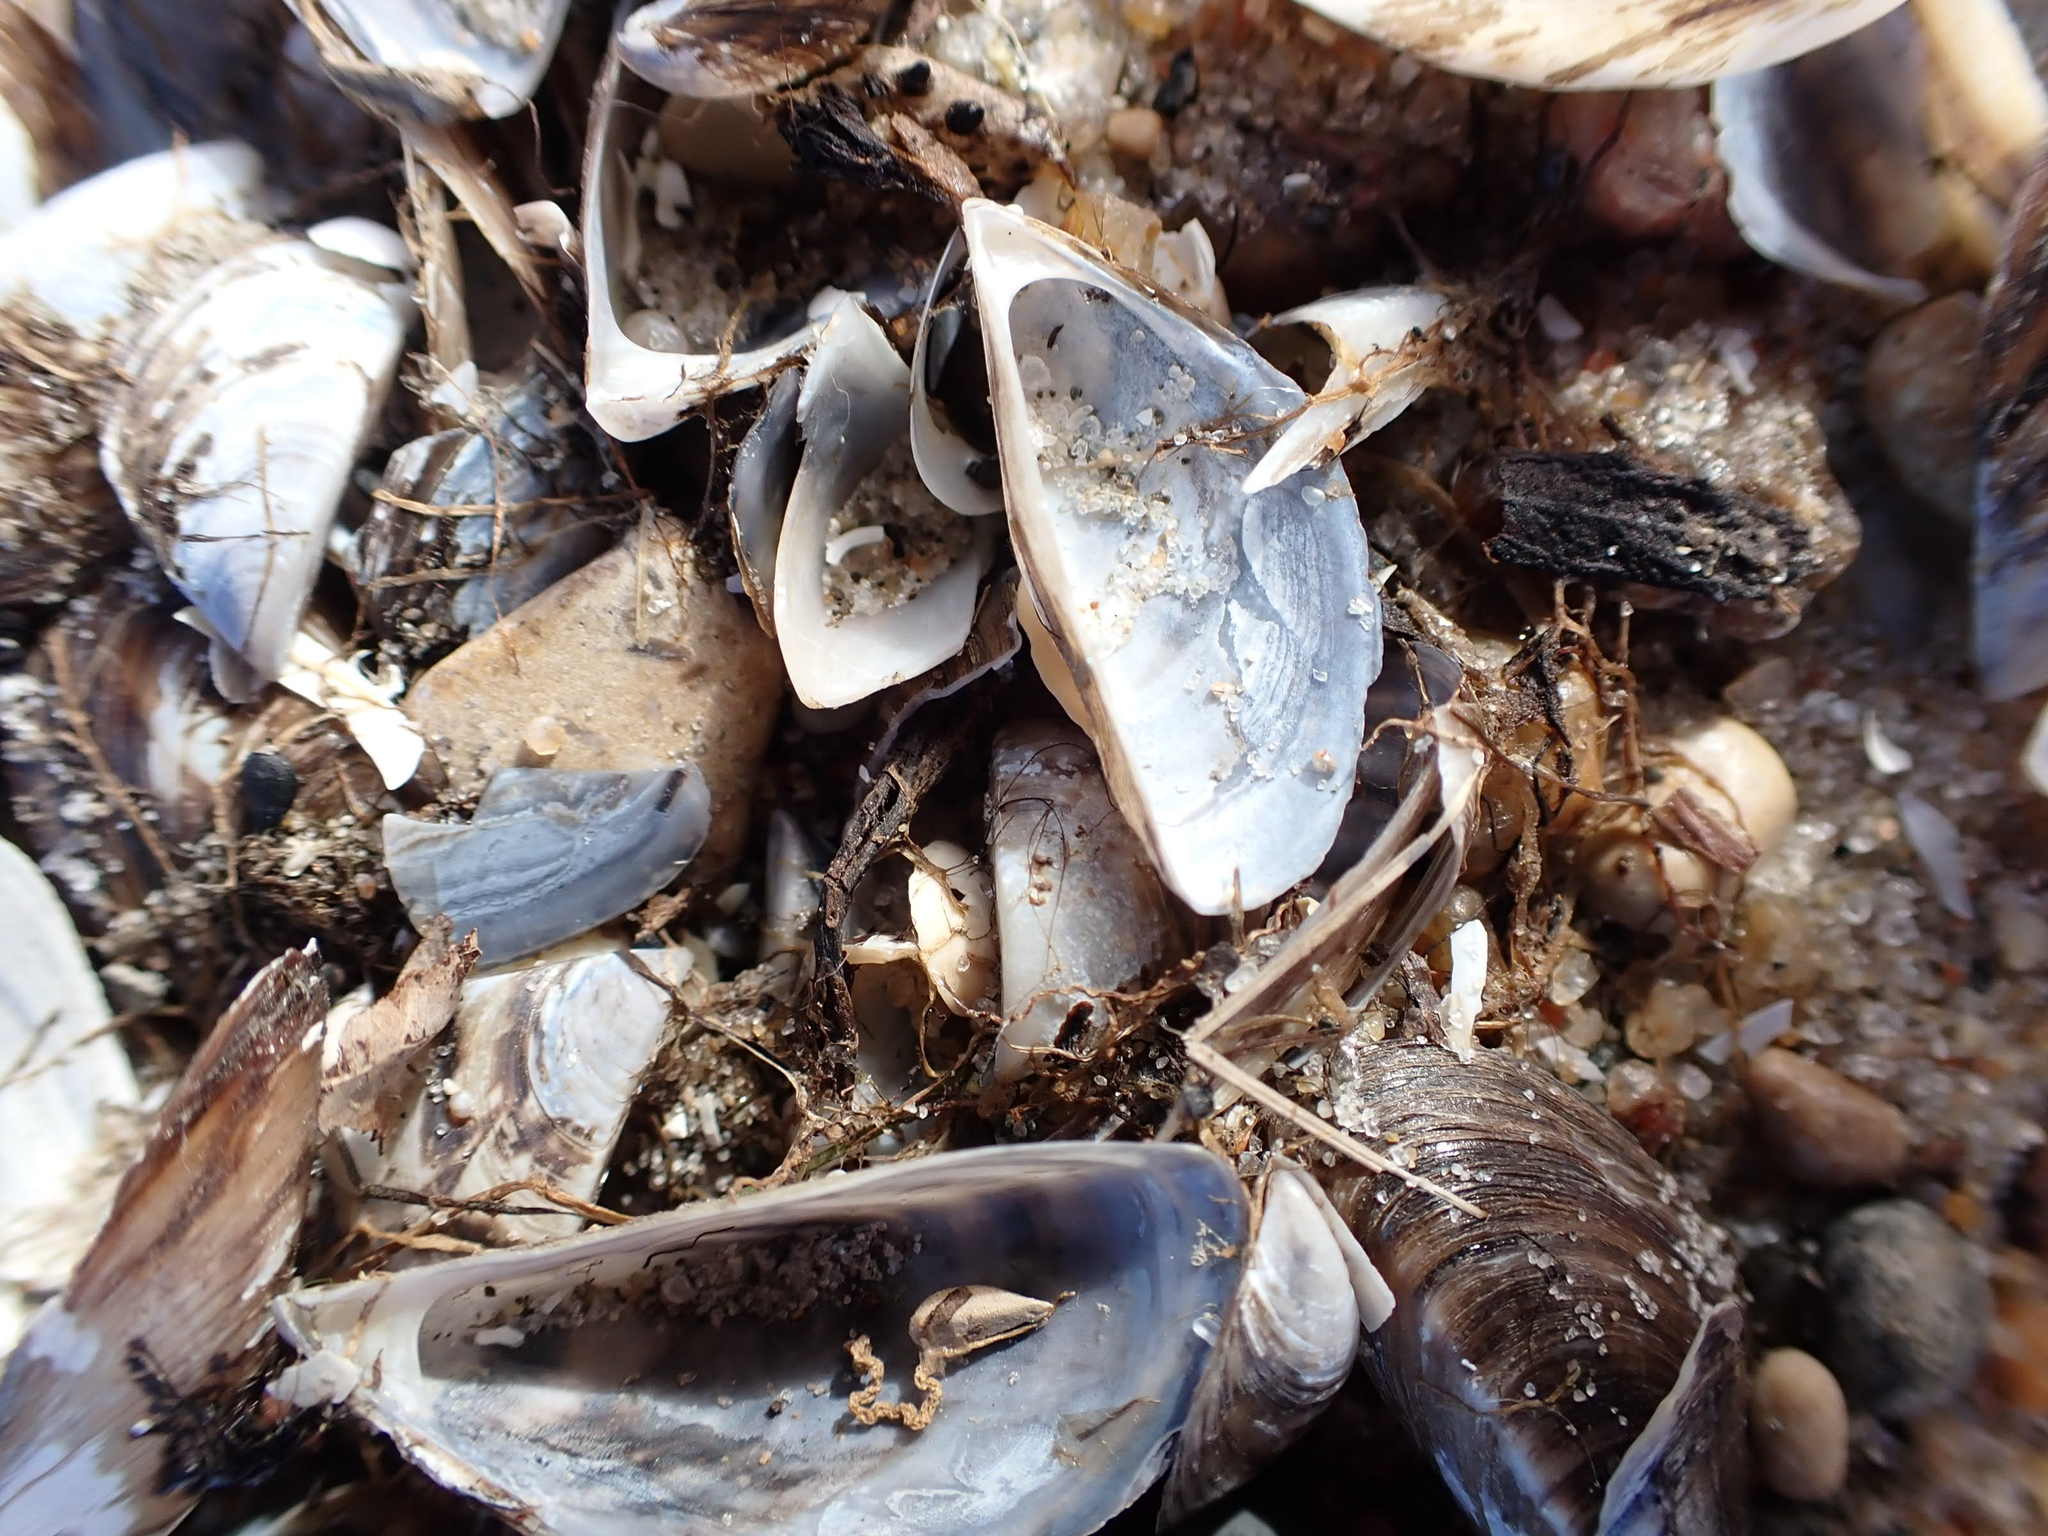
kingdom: Animalia
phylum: Mollusca
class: Bivalvia
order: Myida
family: Dreissenidae
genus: Dreissena
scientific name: Dreissena polymorpha
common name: Zebra mussel
